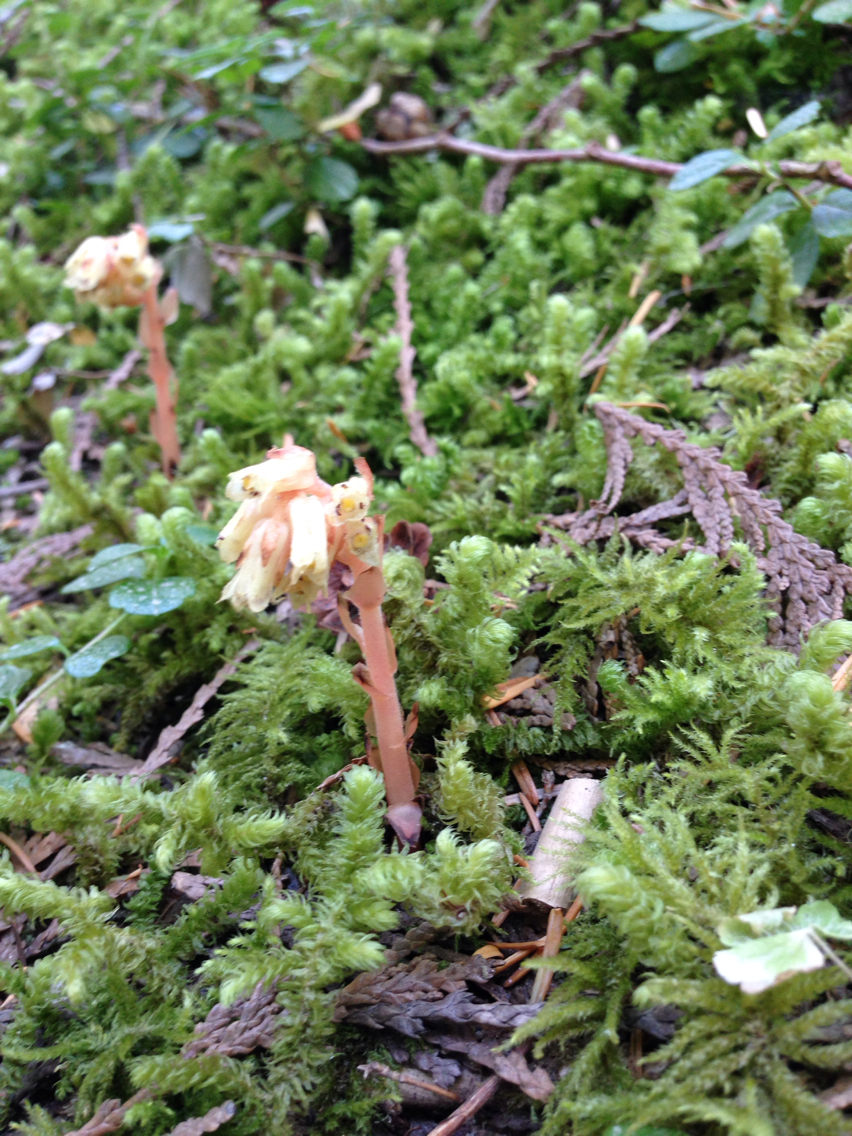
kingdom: Plantae
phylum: Tracheophyta
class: Magnoliopsida
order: Ericales
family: Ericaceae
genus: Hypopitys
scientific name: Hypopitys monotropa
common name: Yellow bird's-nest
